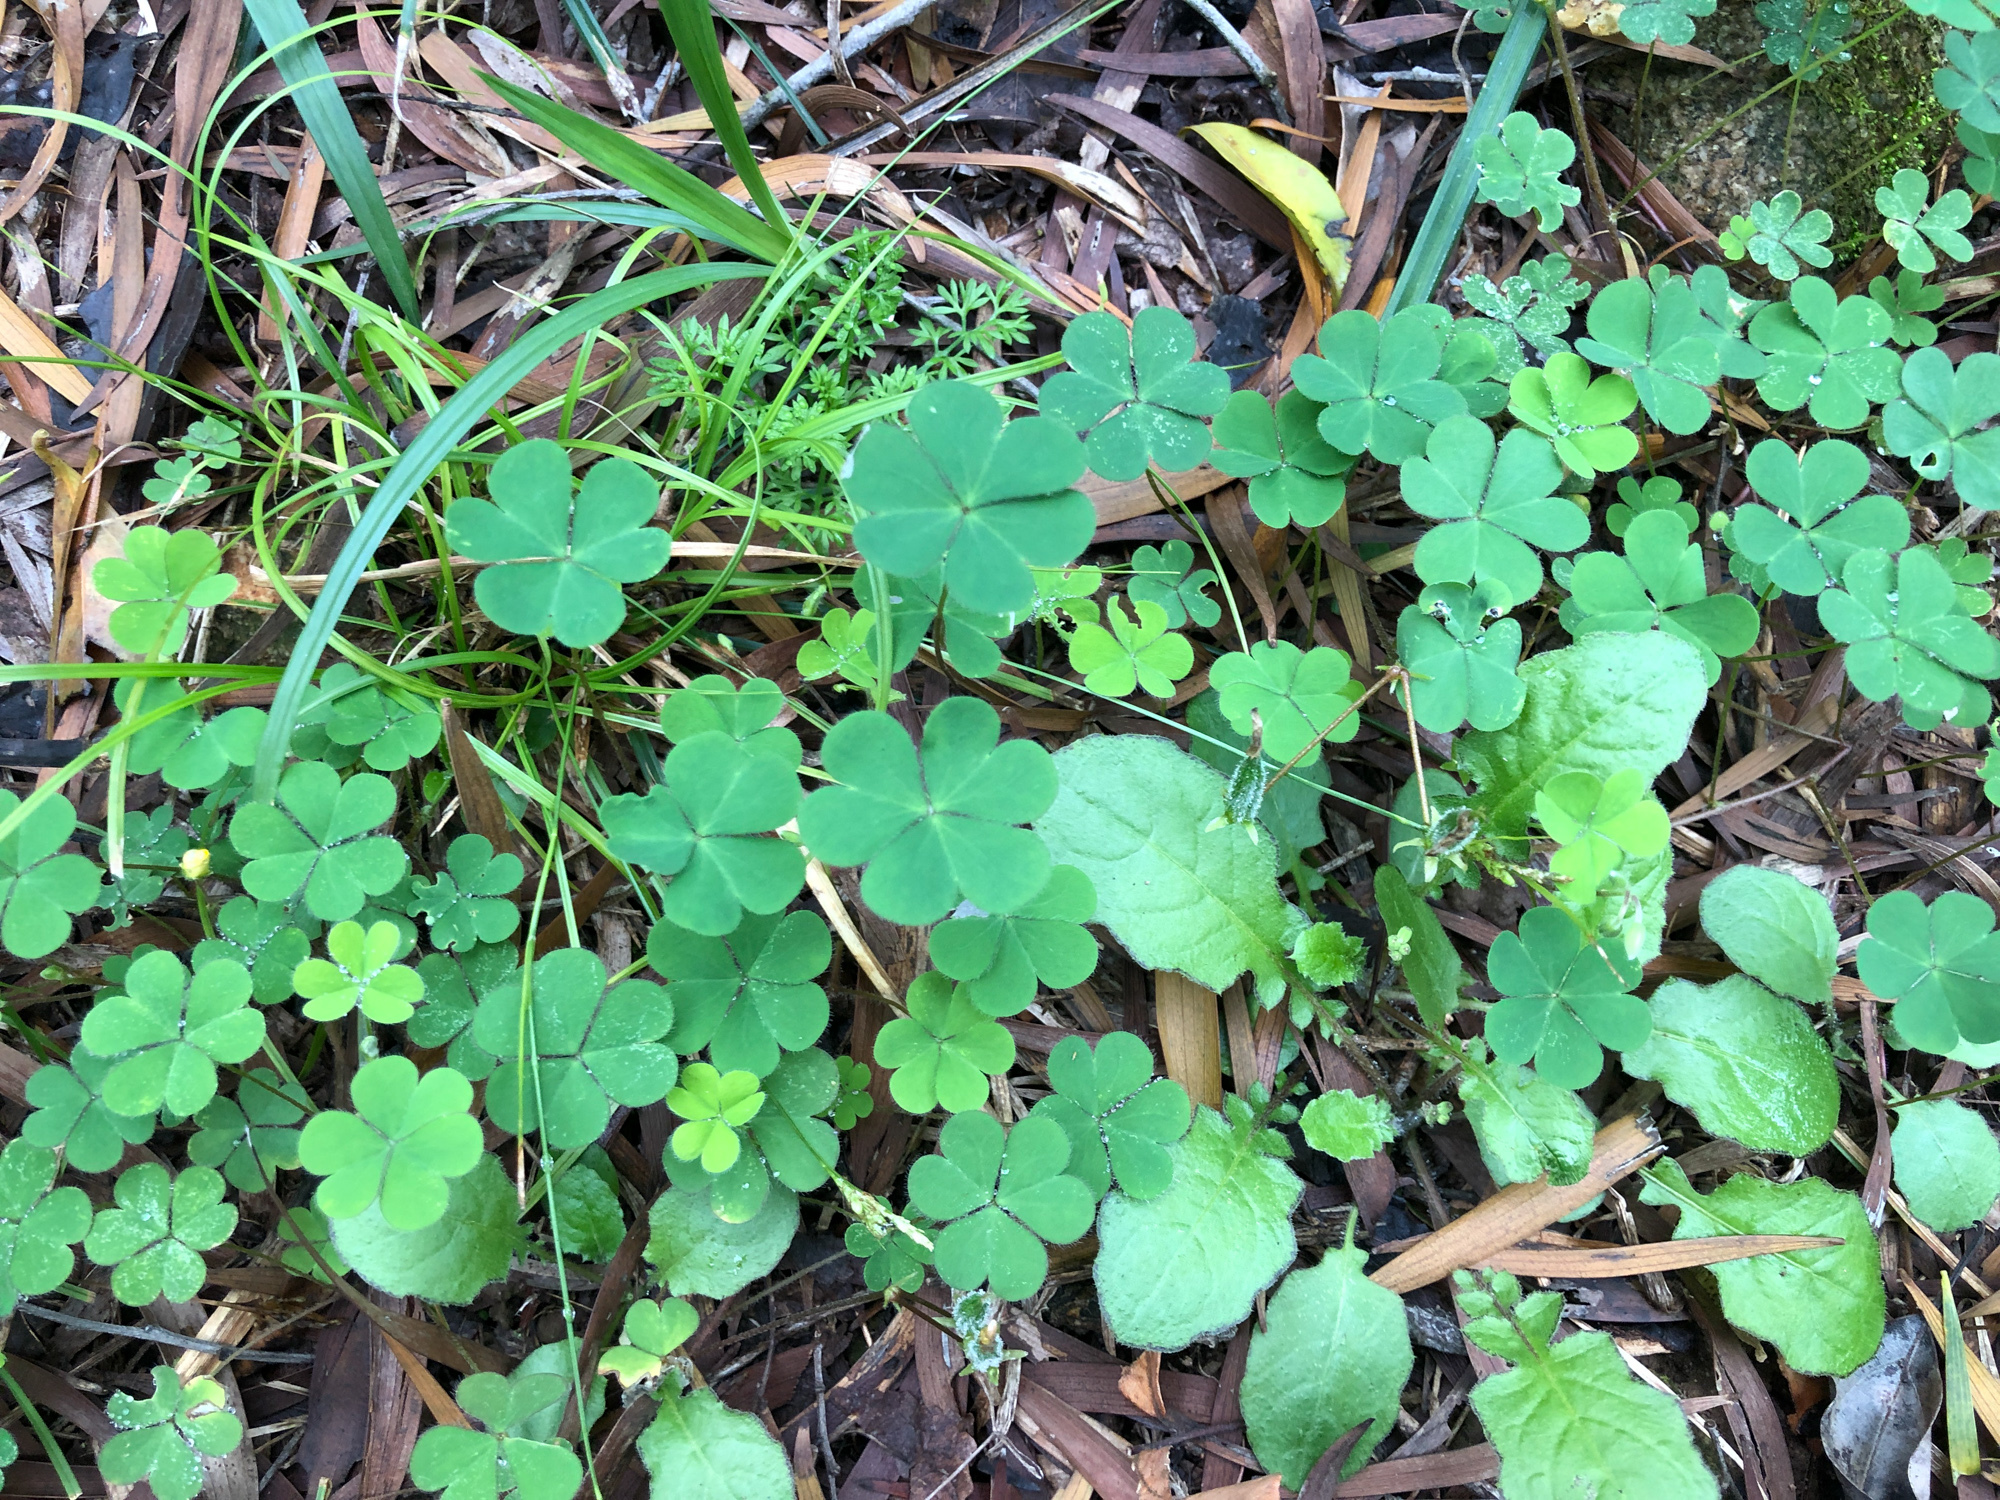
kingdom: Plantae
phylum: Tracheophyta
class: Magnoliopsida
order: Oxalidales
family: Oxalidaceae
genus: Oxalis
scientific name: Oxalis corniculata
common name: Procumbent yellow-sorrel
